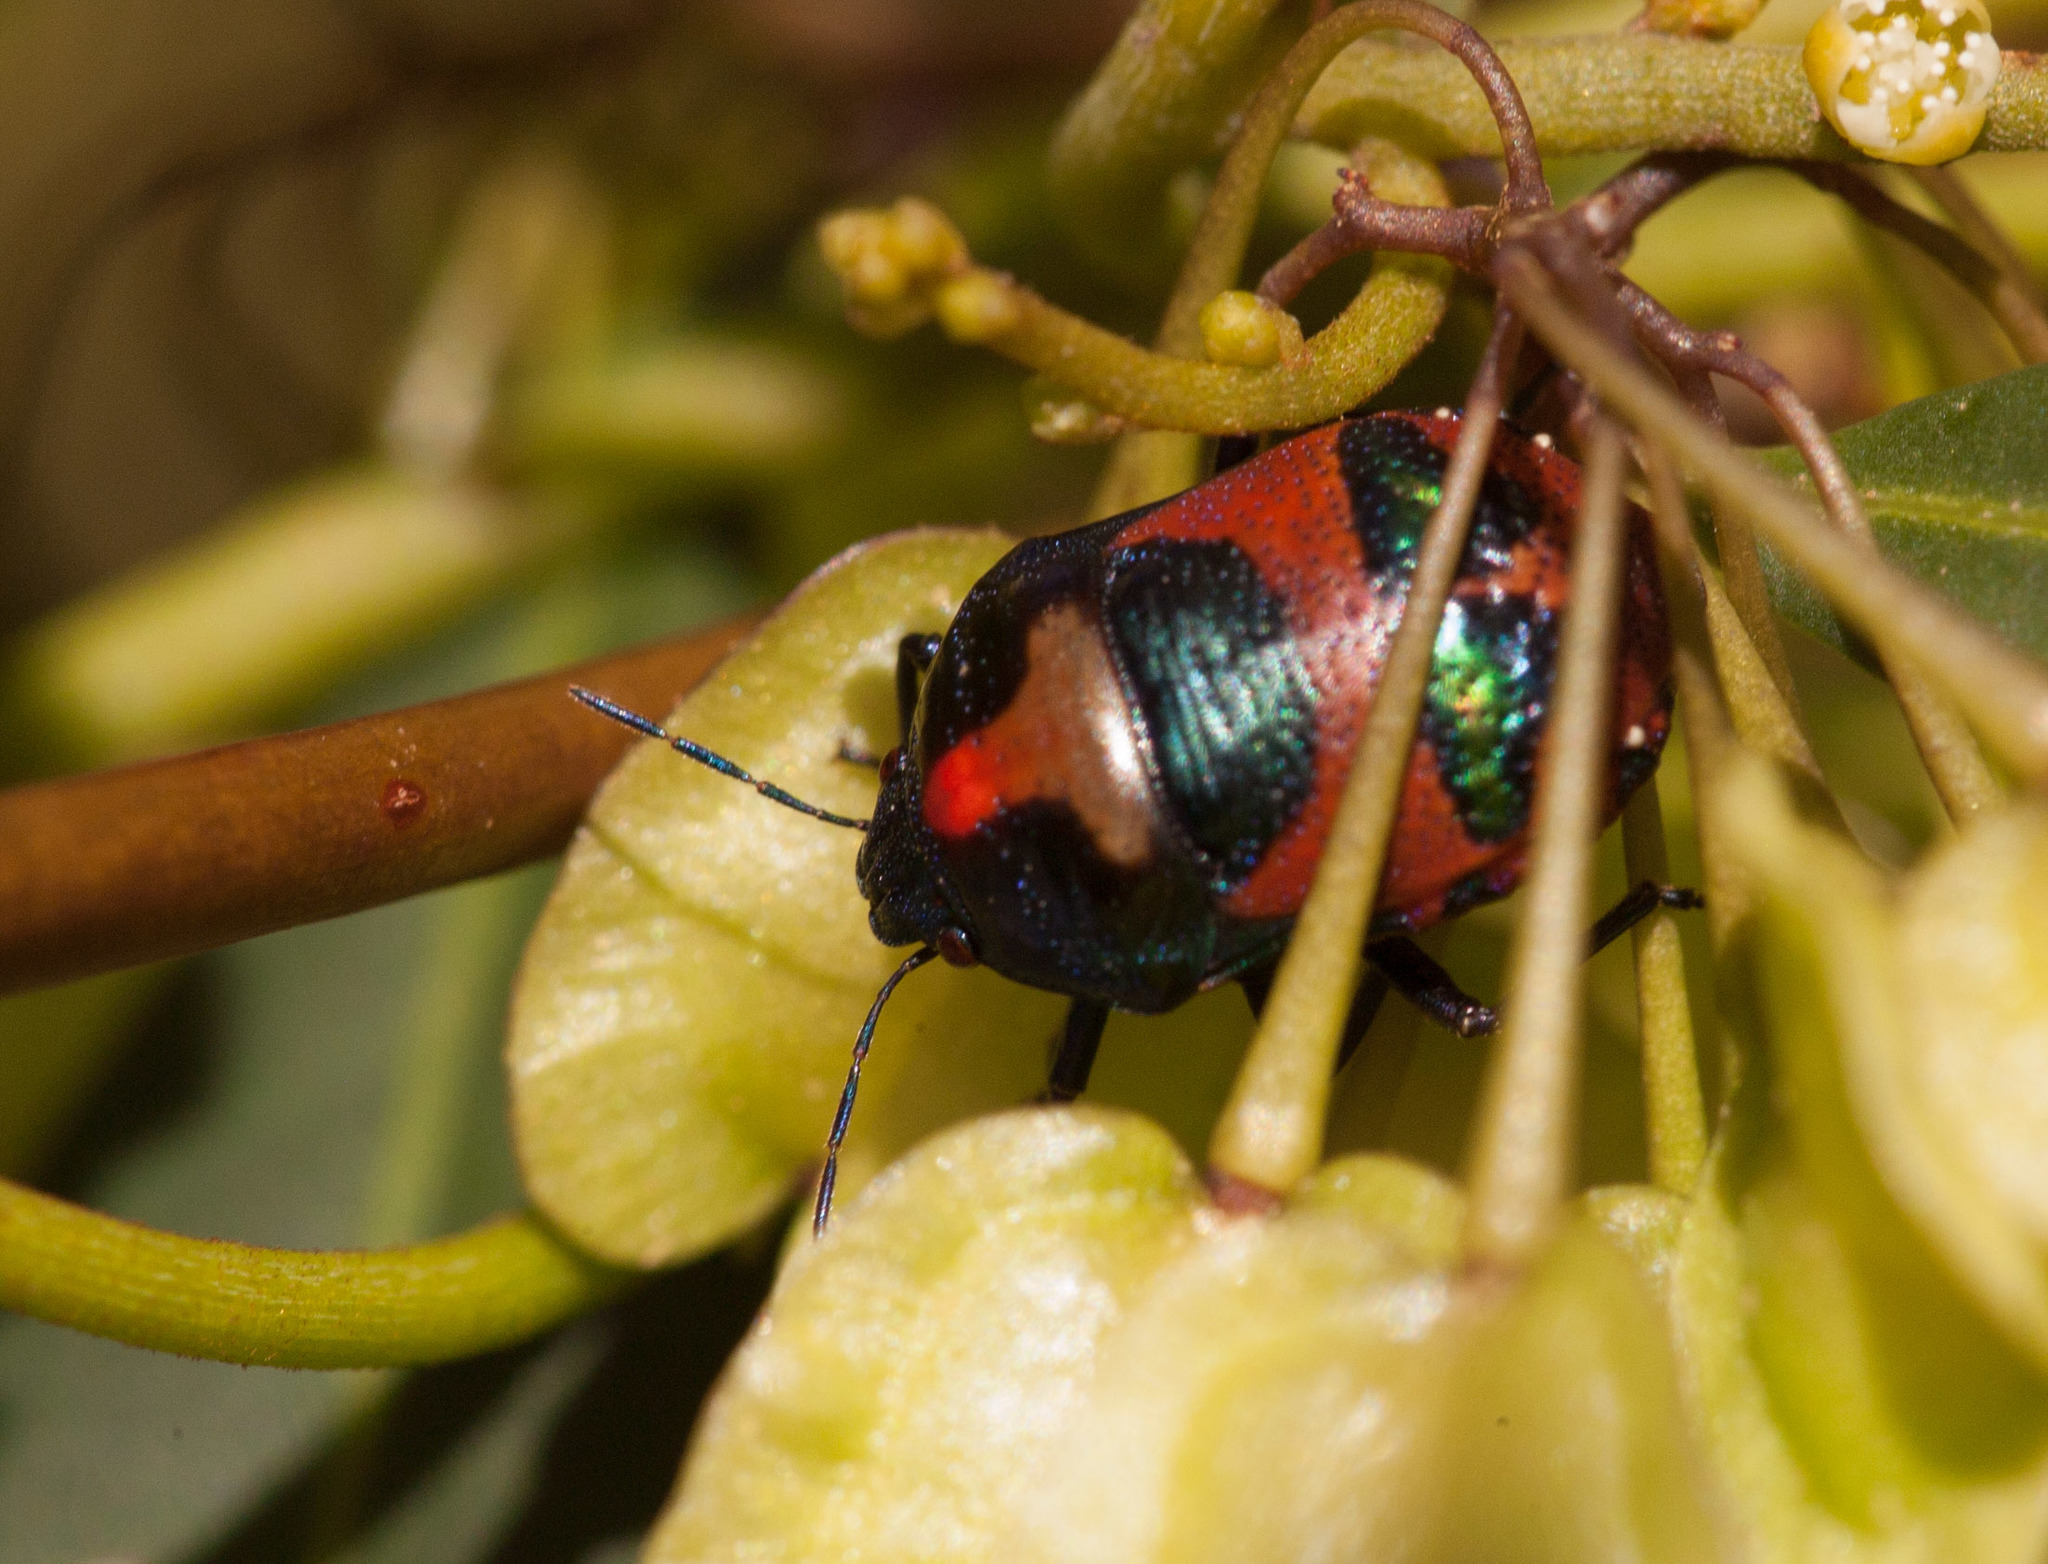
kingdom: Animalia
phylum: Arthropoda
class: Insecta
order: Hemiptera
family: Scutelleridae
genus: Choerocoris
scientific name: Choerocoris paganus
